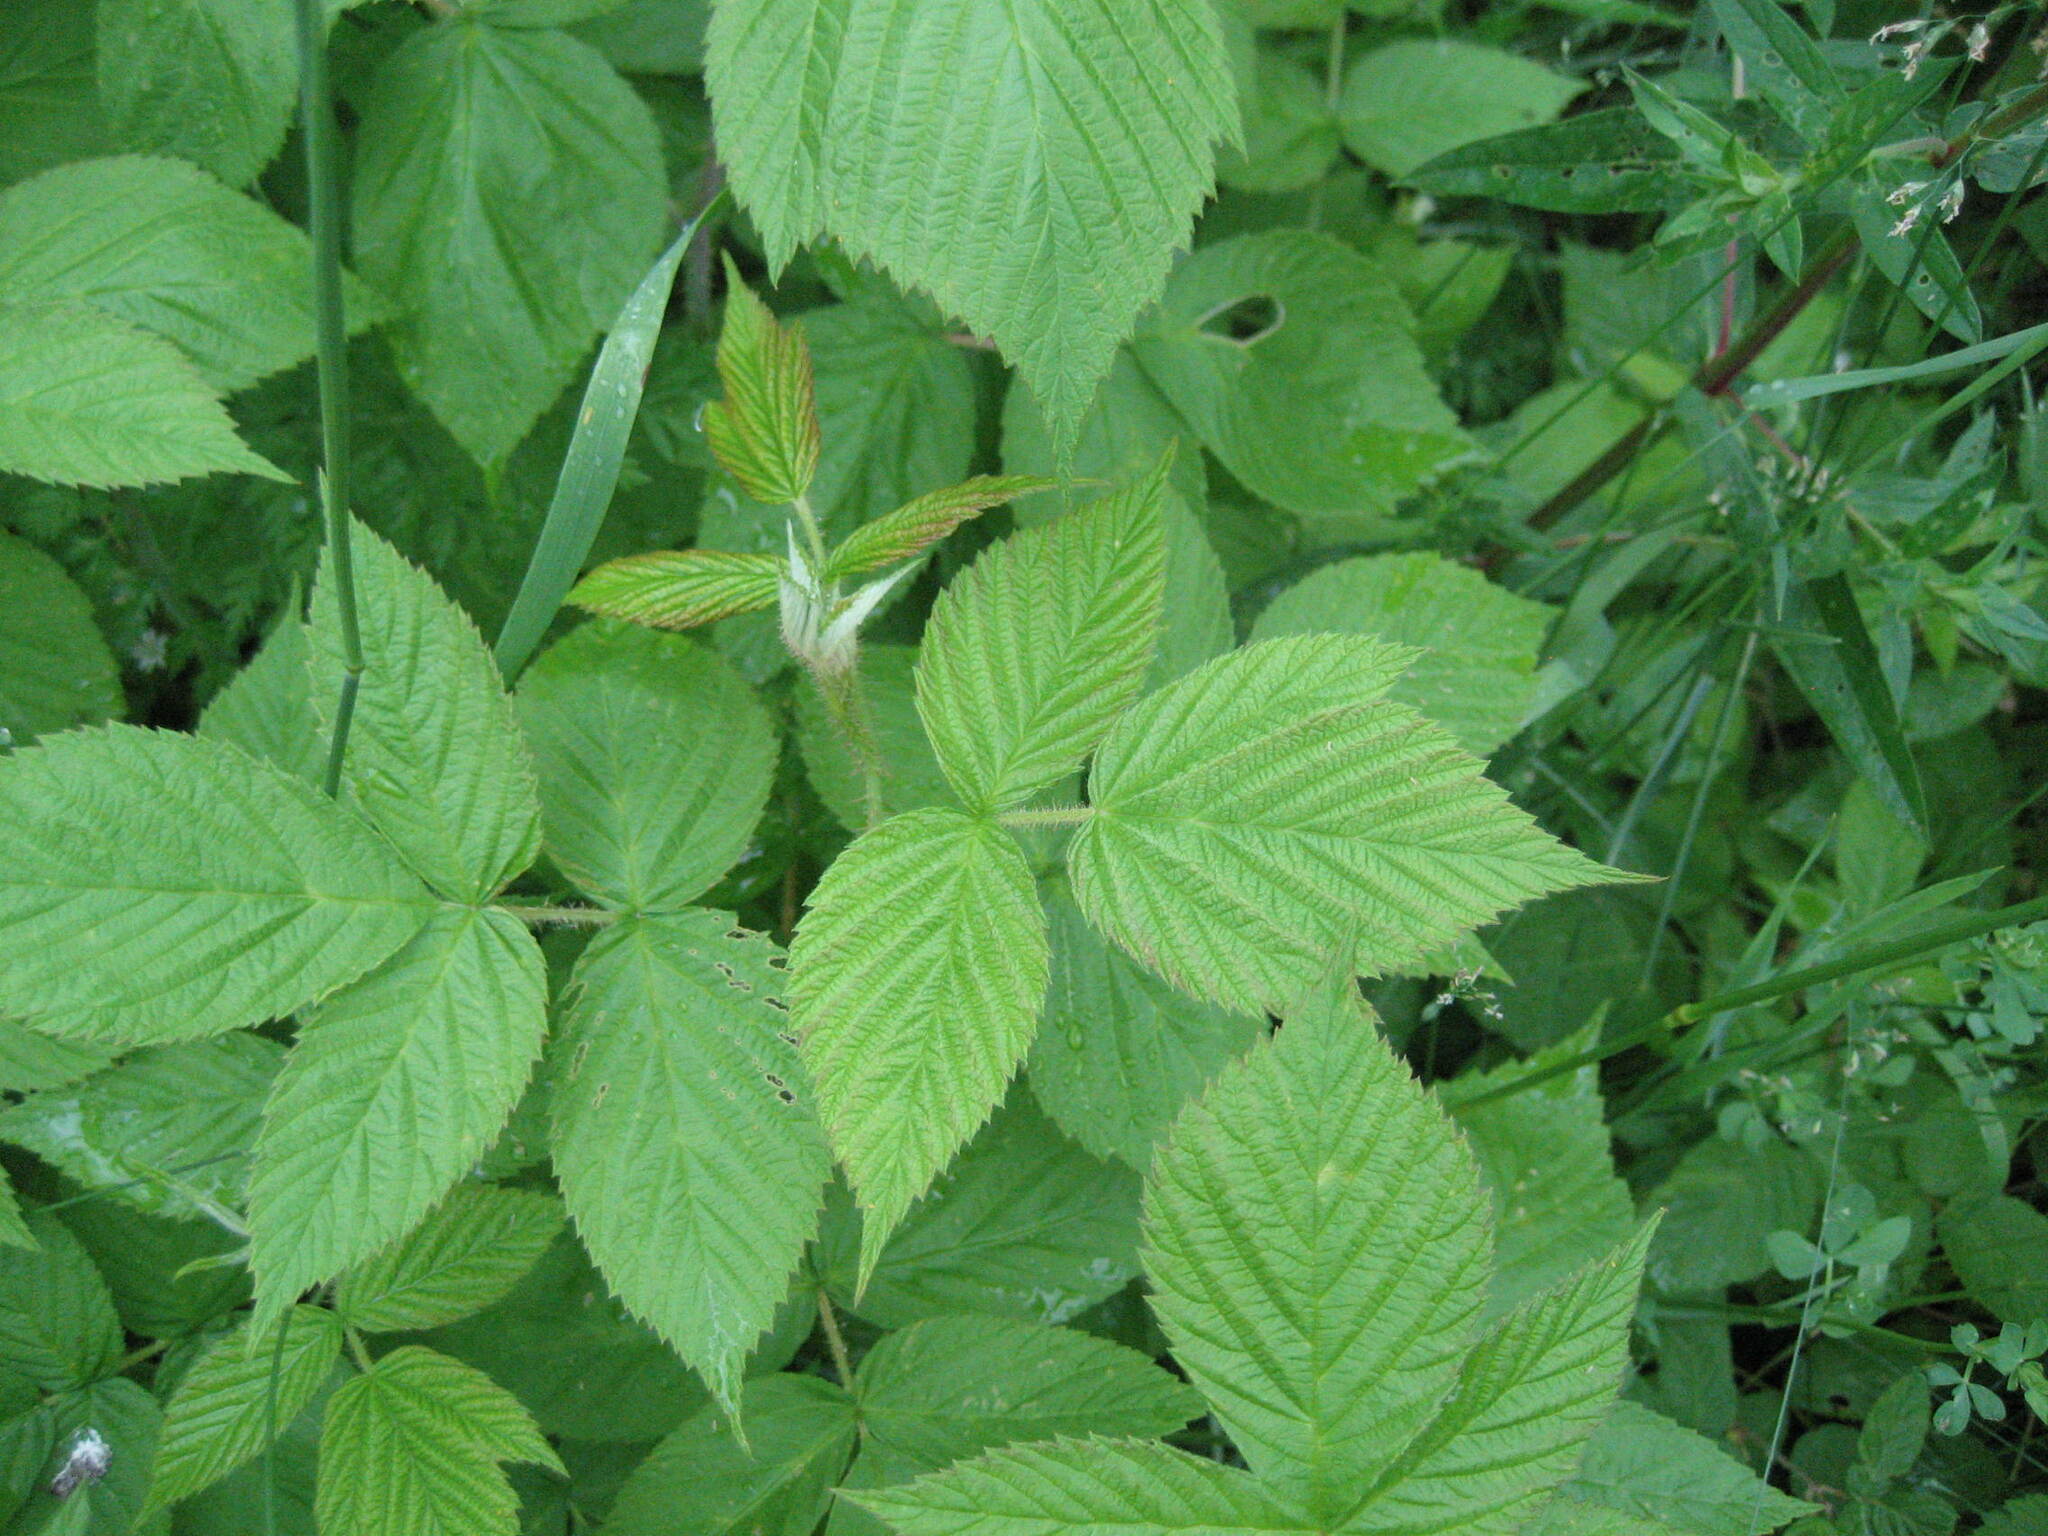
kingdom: Plantae
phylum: Tracheophyta
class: Magnoliopsida
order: Rosales
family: Rosaceae
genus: Rubus
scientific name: Rubus idaeus
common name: Raspberry
